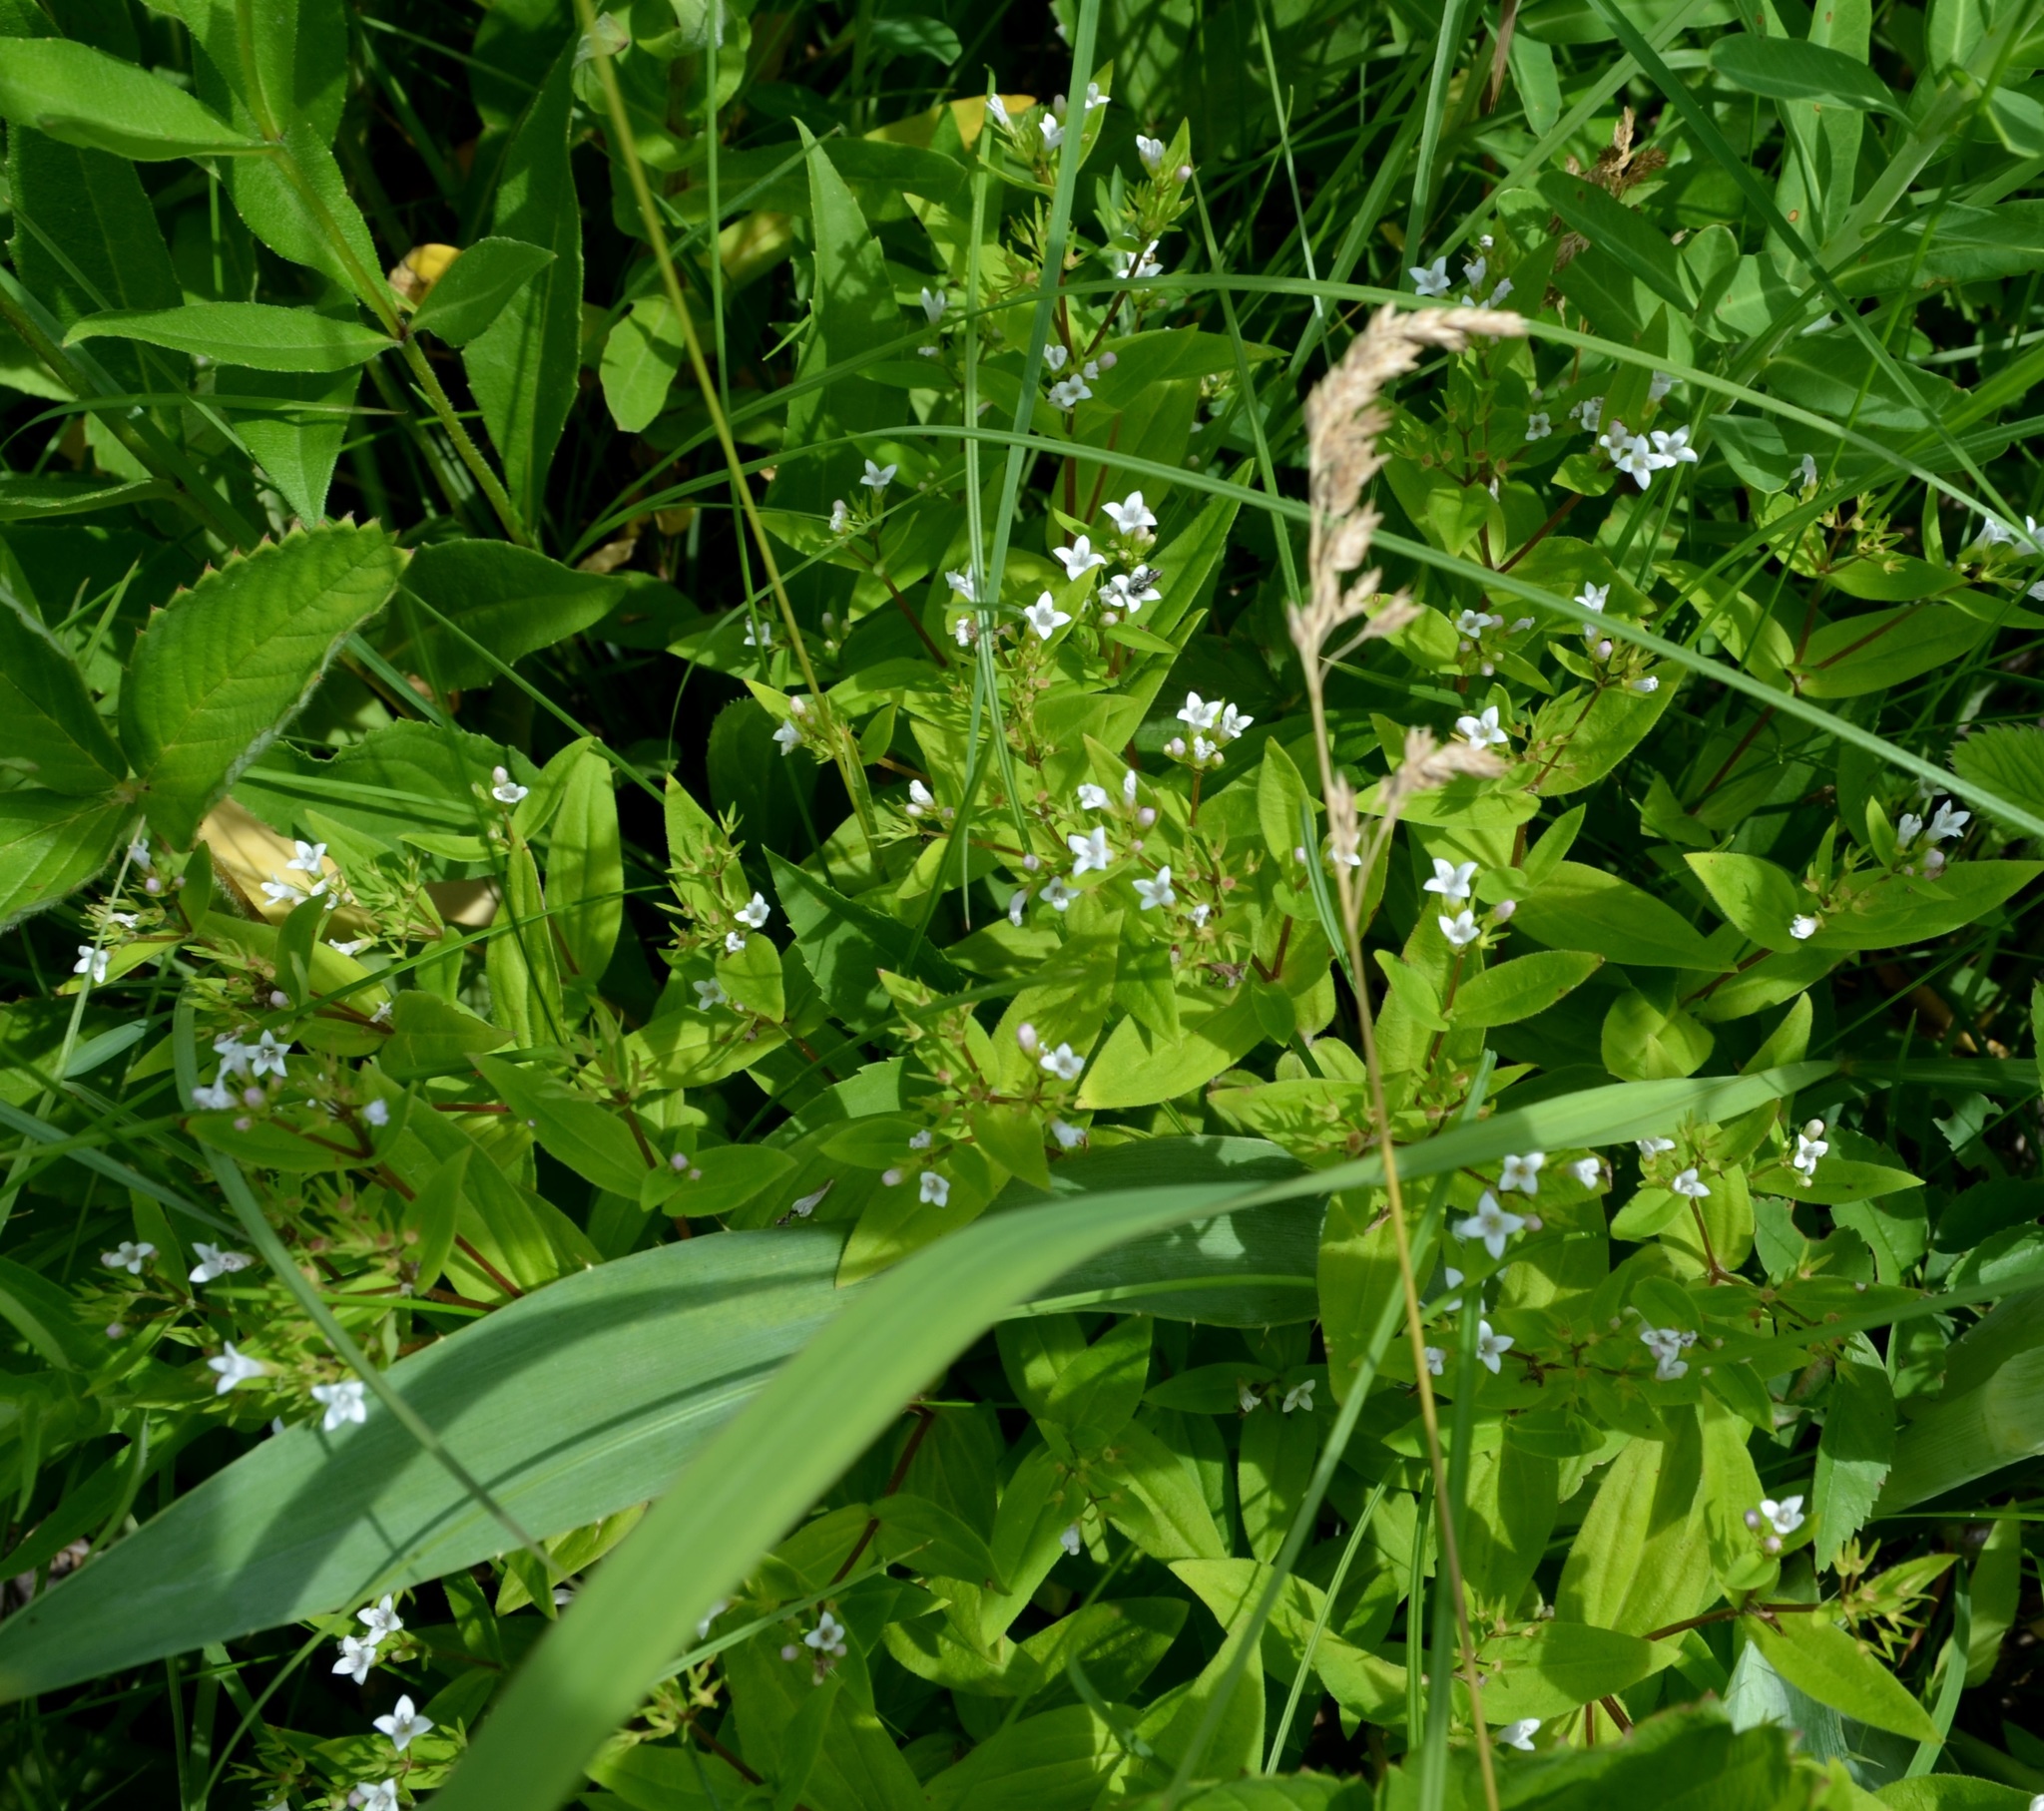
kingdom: Plantae
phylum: Tracheophyta
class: Magnoliopsida
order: Gentianales
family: Rubiaceae
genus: Houstonia
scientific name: Houstonia purpurea
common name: Summer bluet
